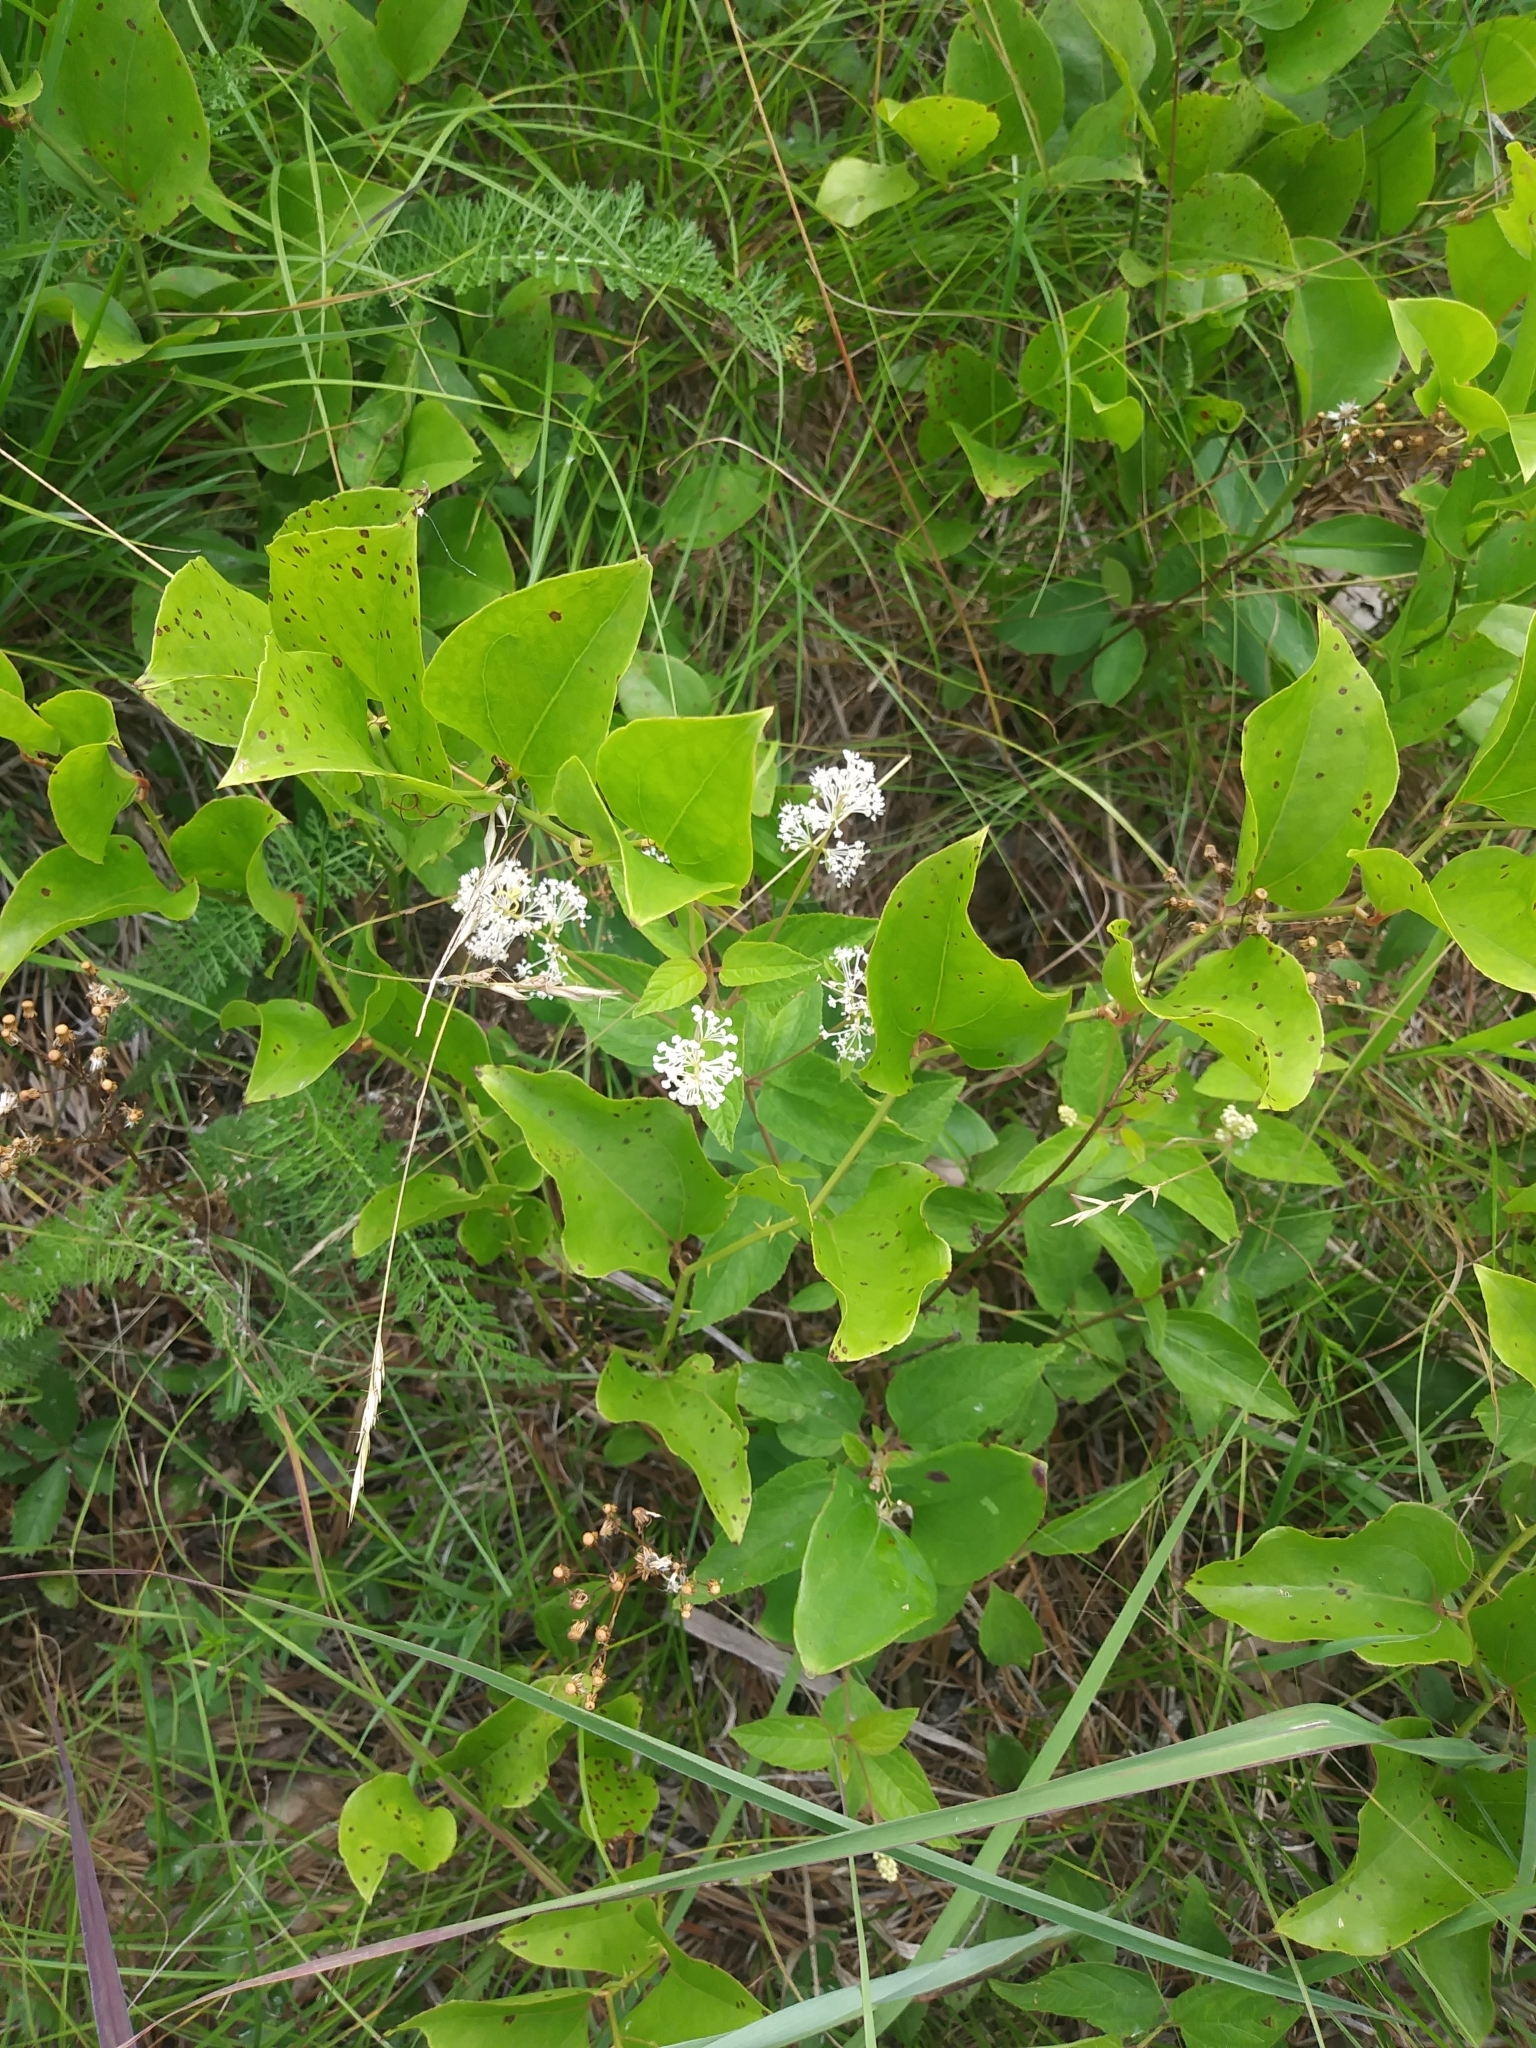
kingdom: Plantae
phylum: Tracheophyta
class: Magnoliopsida
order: Rosales
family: Rhamnaceae
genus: Ceanothus
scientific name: Ceanothus americanus
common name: Redroot
